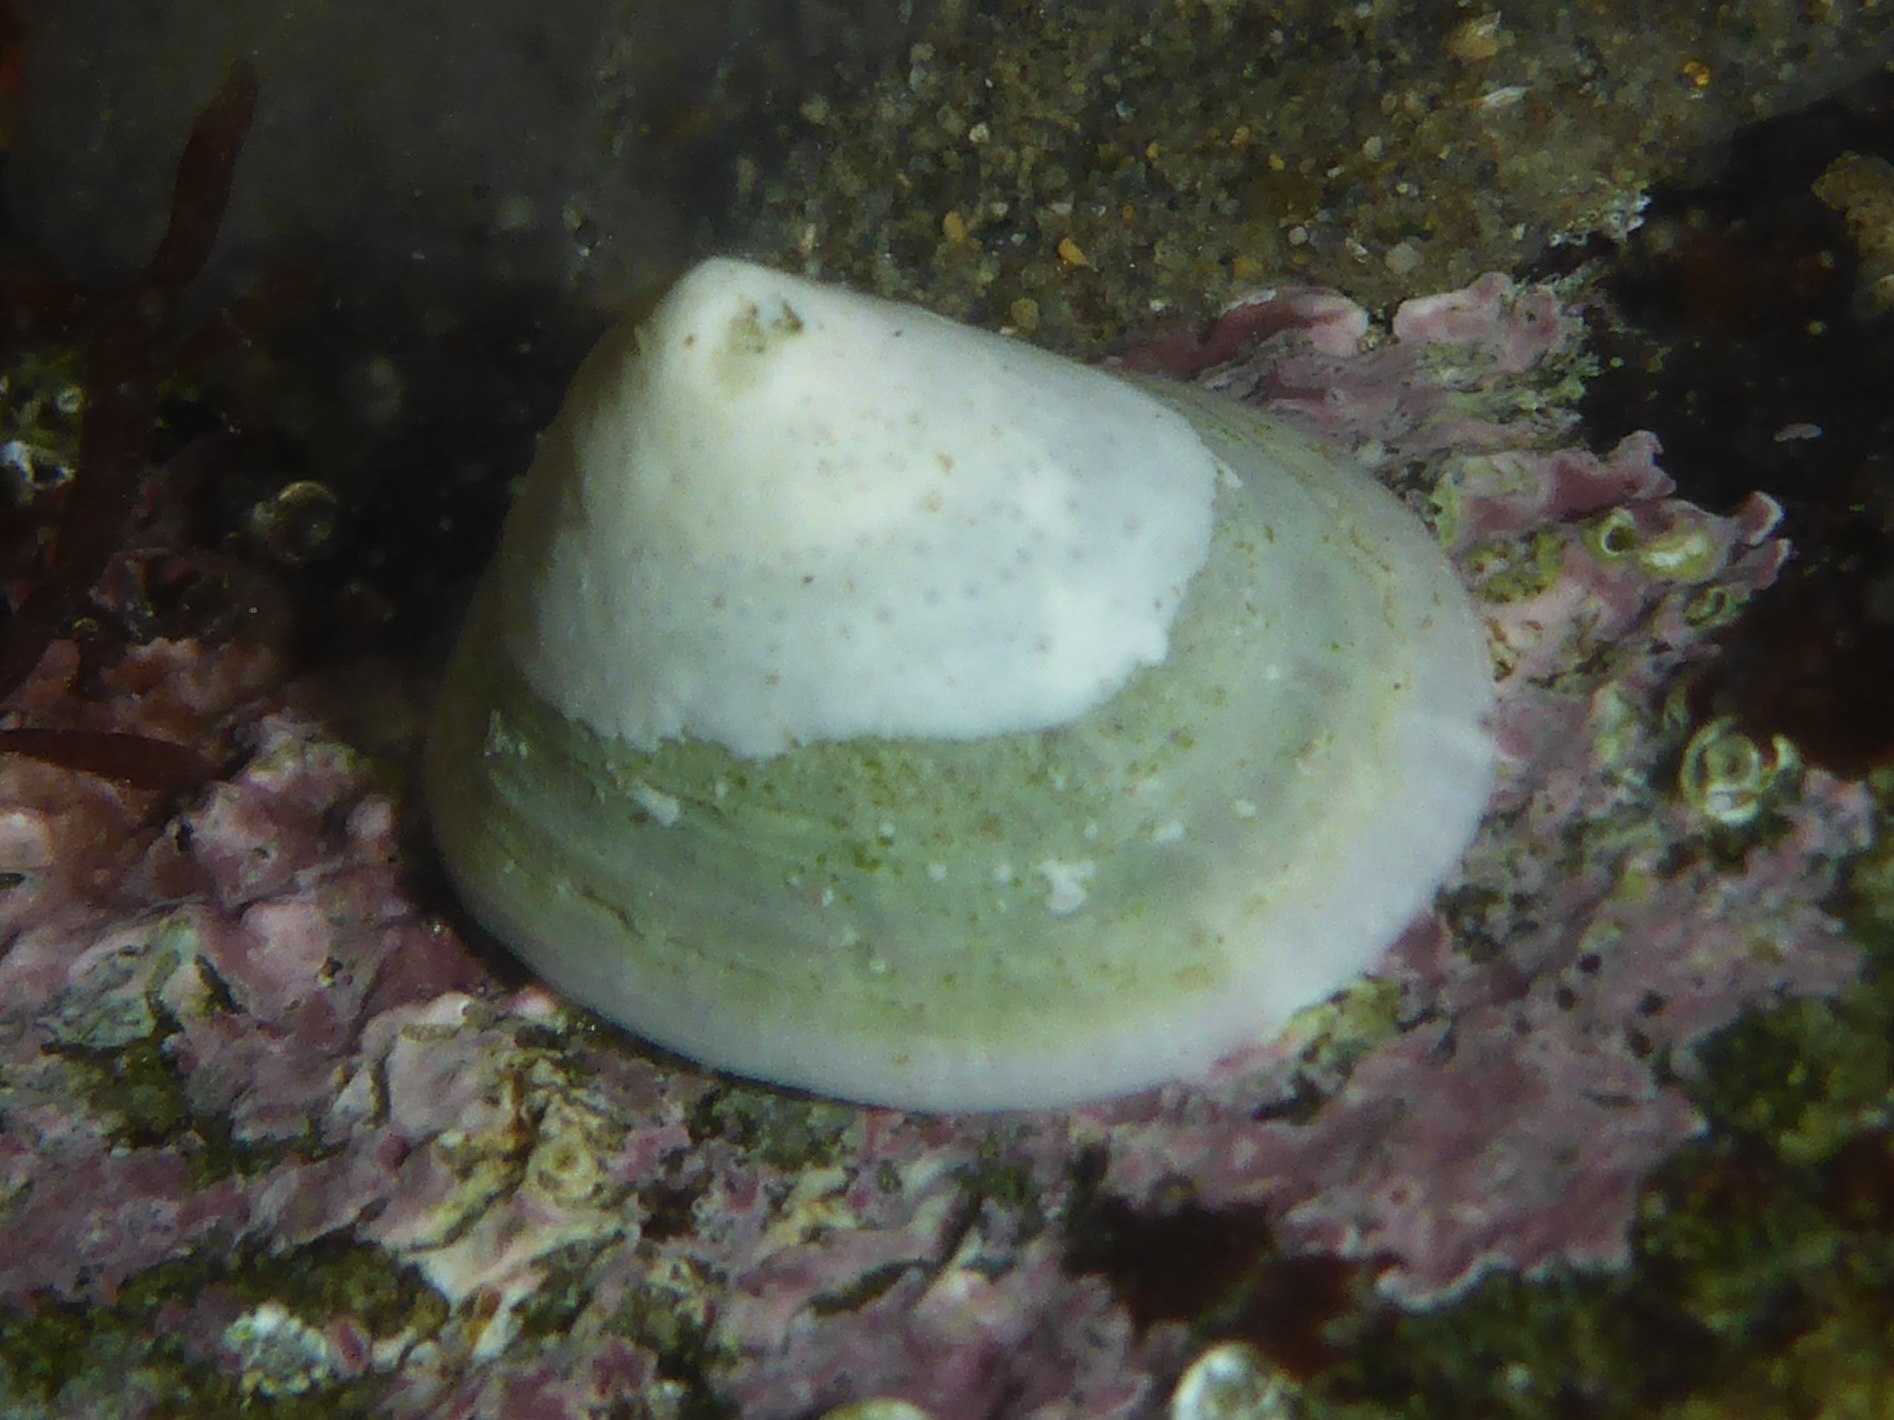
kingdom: Animalia
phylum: Mollusca
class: Gastropoda
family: Acmaeidae
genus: Acmaea
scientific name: Acmaea mitra
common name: Pacific white cap limpet
